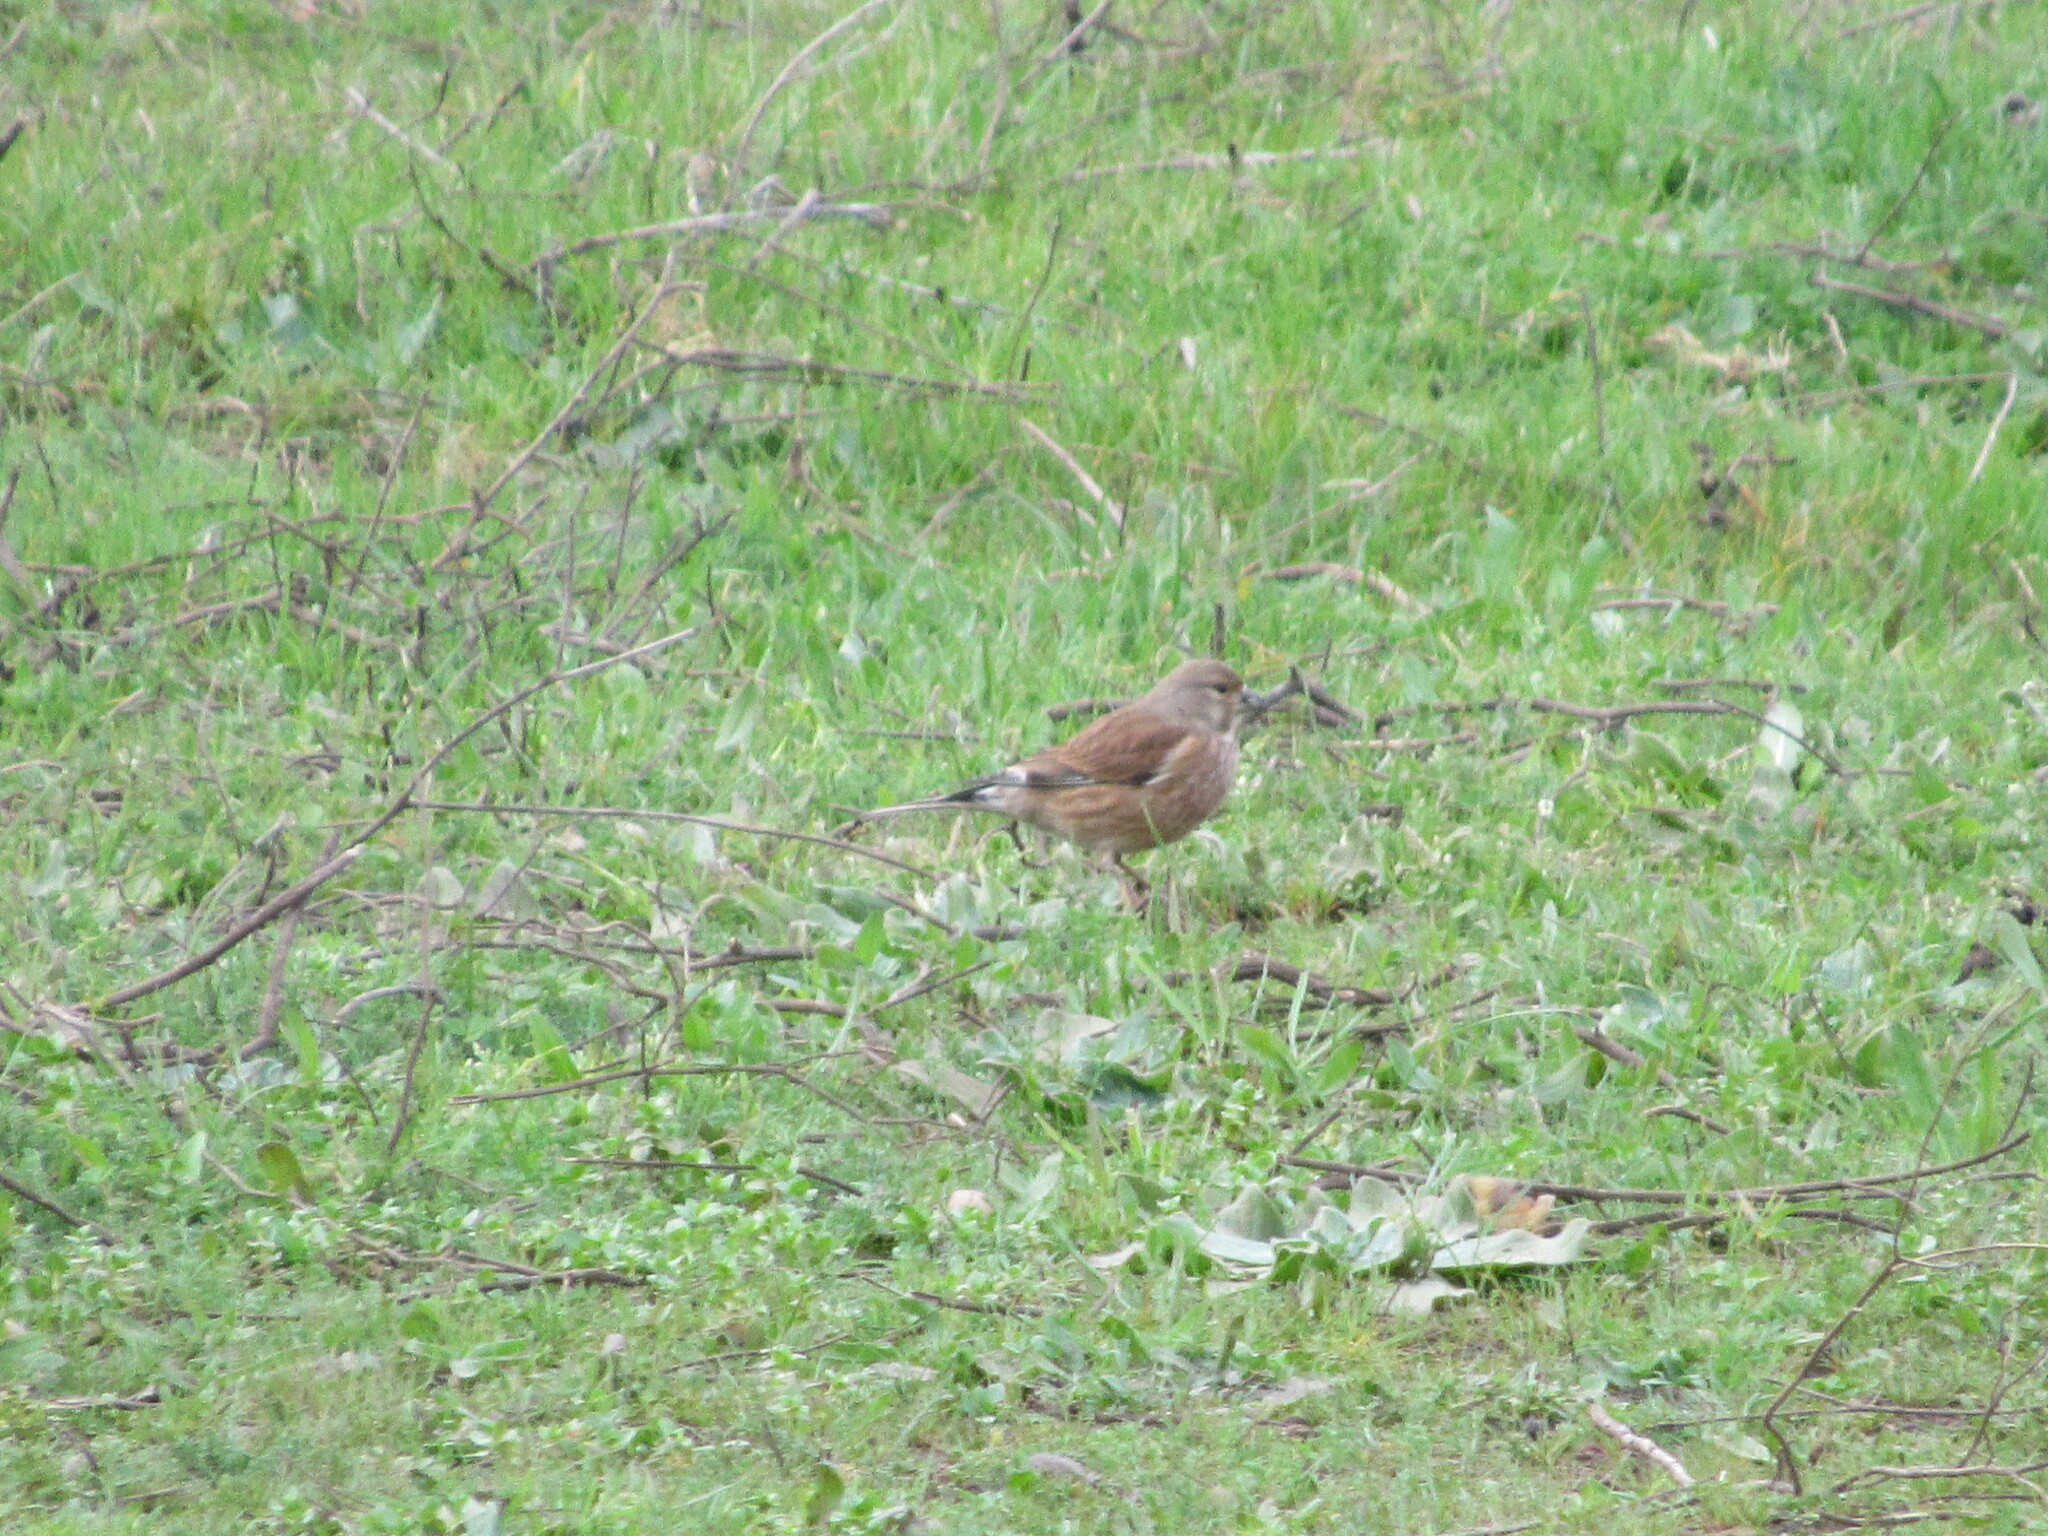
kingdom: Animalia
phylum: Chordata
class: Aves
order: Passeriformes
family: Fringillidae
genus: Linaria
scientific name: Linaria cannabina
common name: Common linnet
